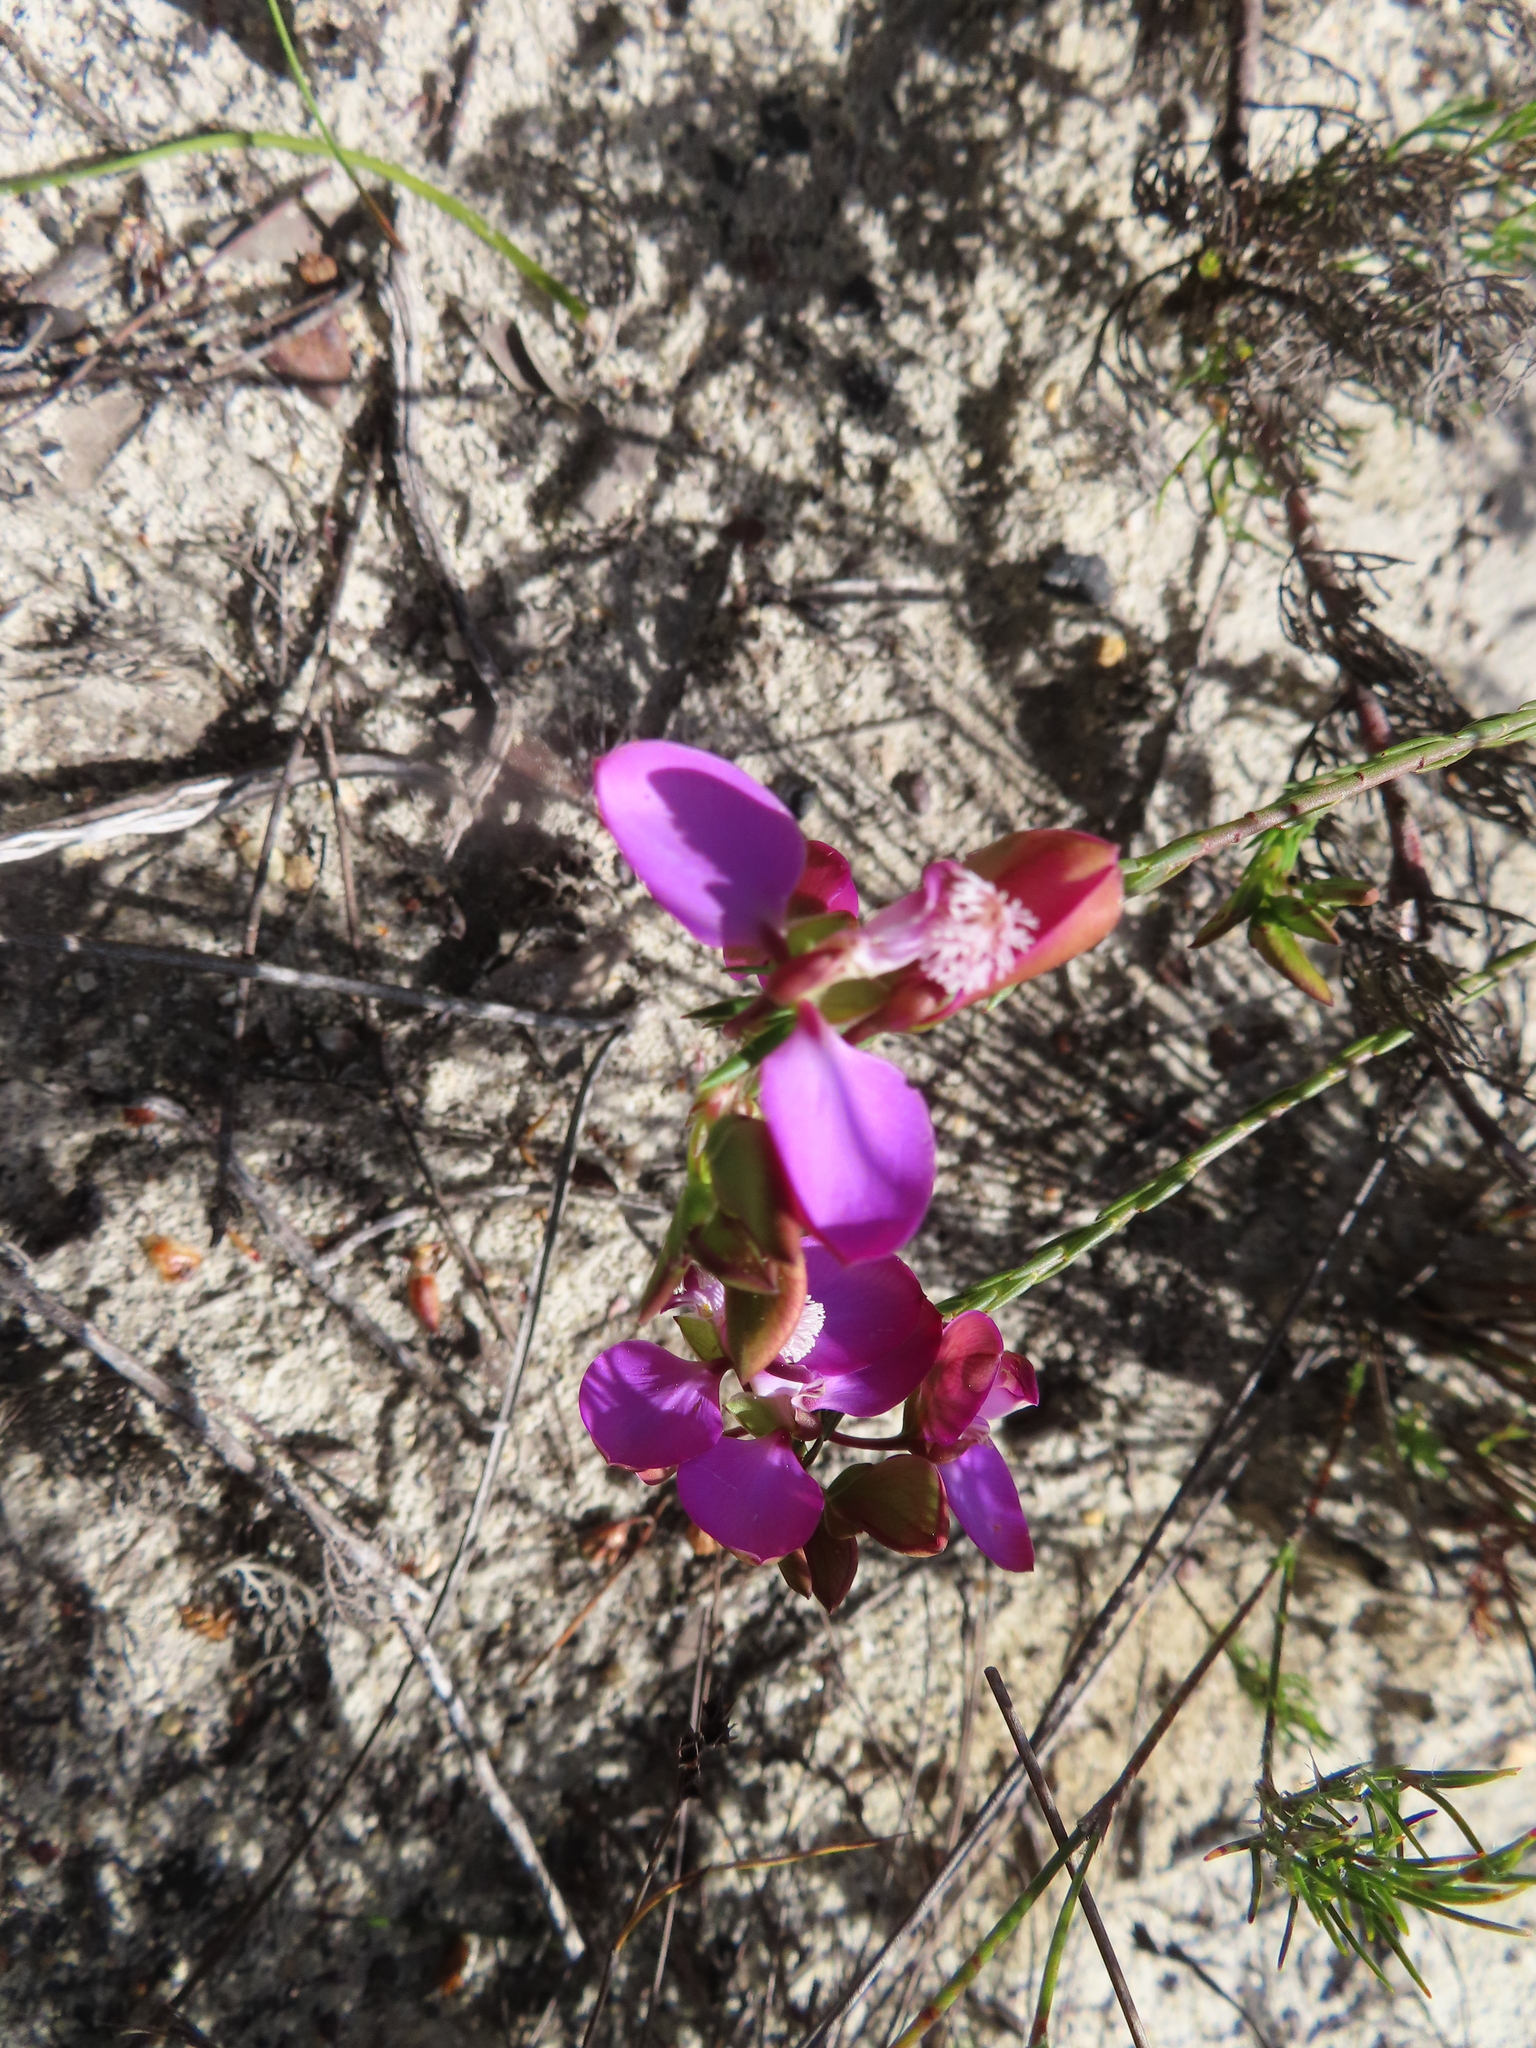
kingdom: Plantae
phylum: Tracheophyta
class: Magnoliopsida
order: Fabales
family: Polygalaceae
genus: Polygala
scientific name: Polygala bracteolata
